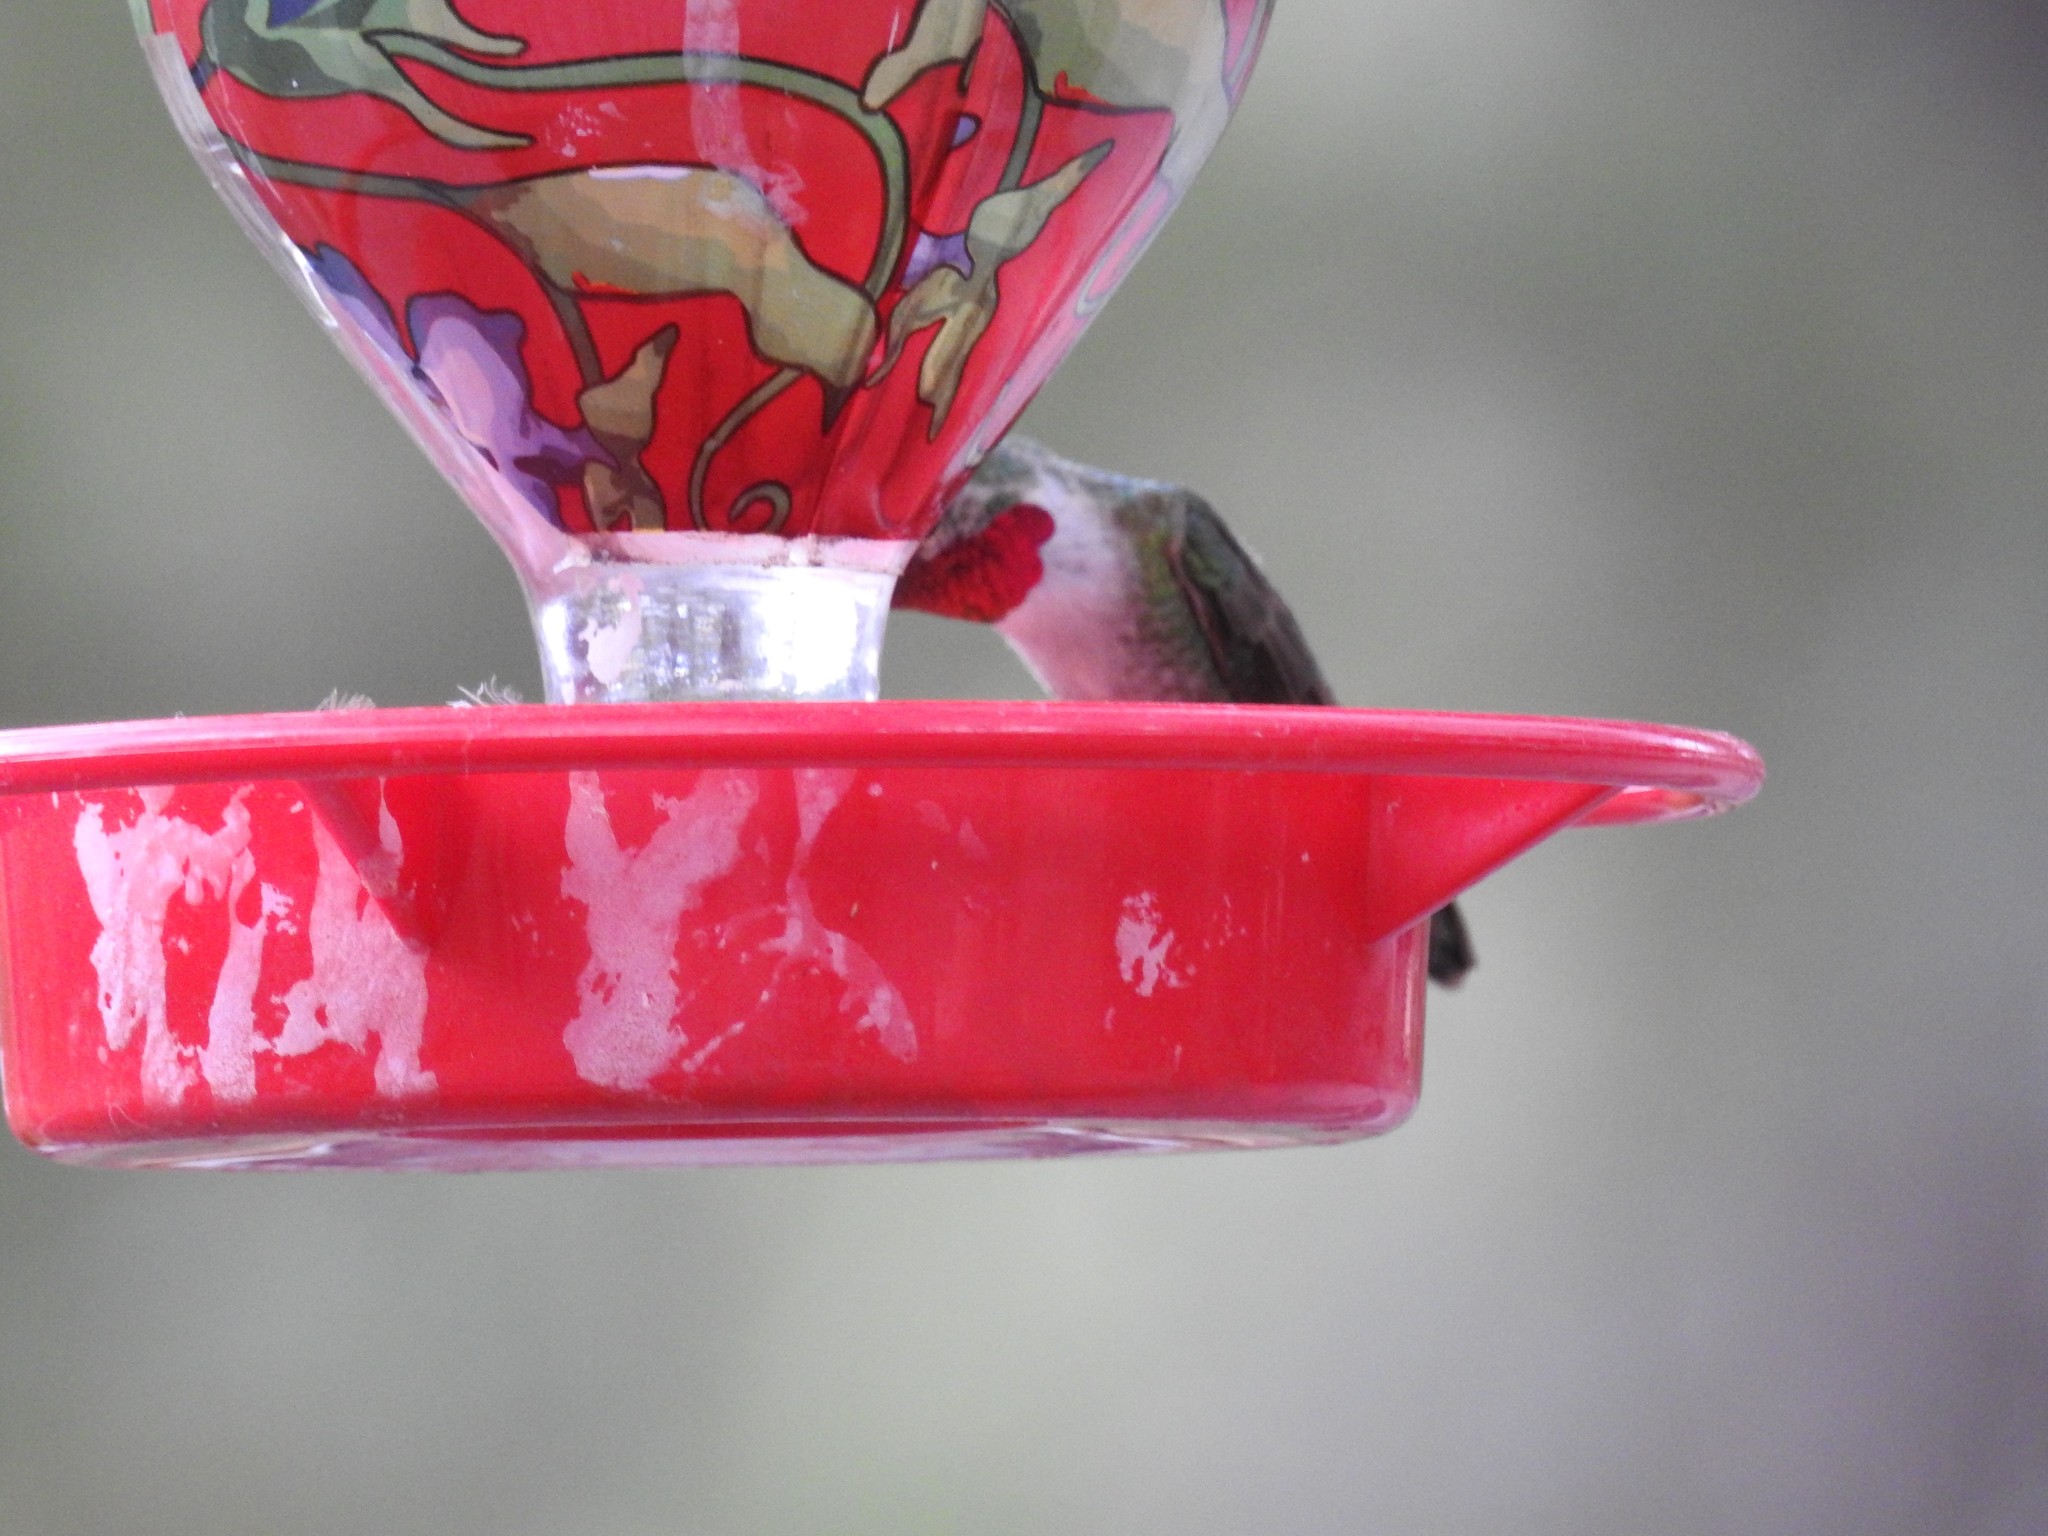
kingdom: Animalia
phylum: Chordata
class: Aves
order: Apodiformes
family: Trochilidae
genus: Selasphorus
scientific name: Selasphorus platycercus
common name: Broad-tailed hummingbird
